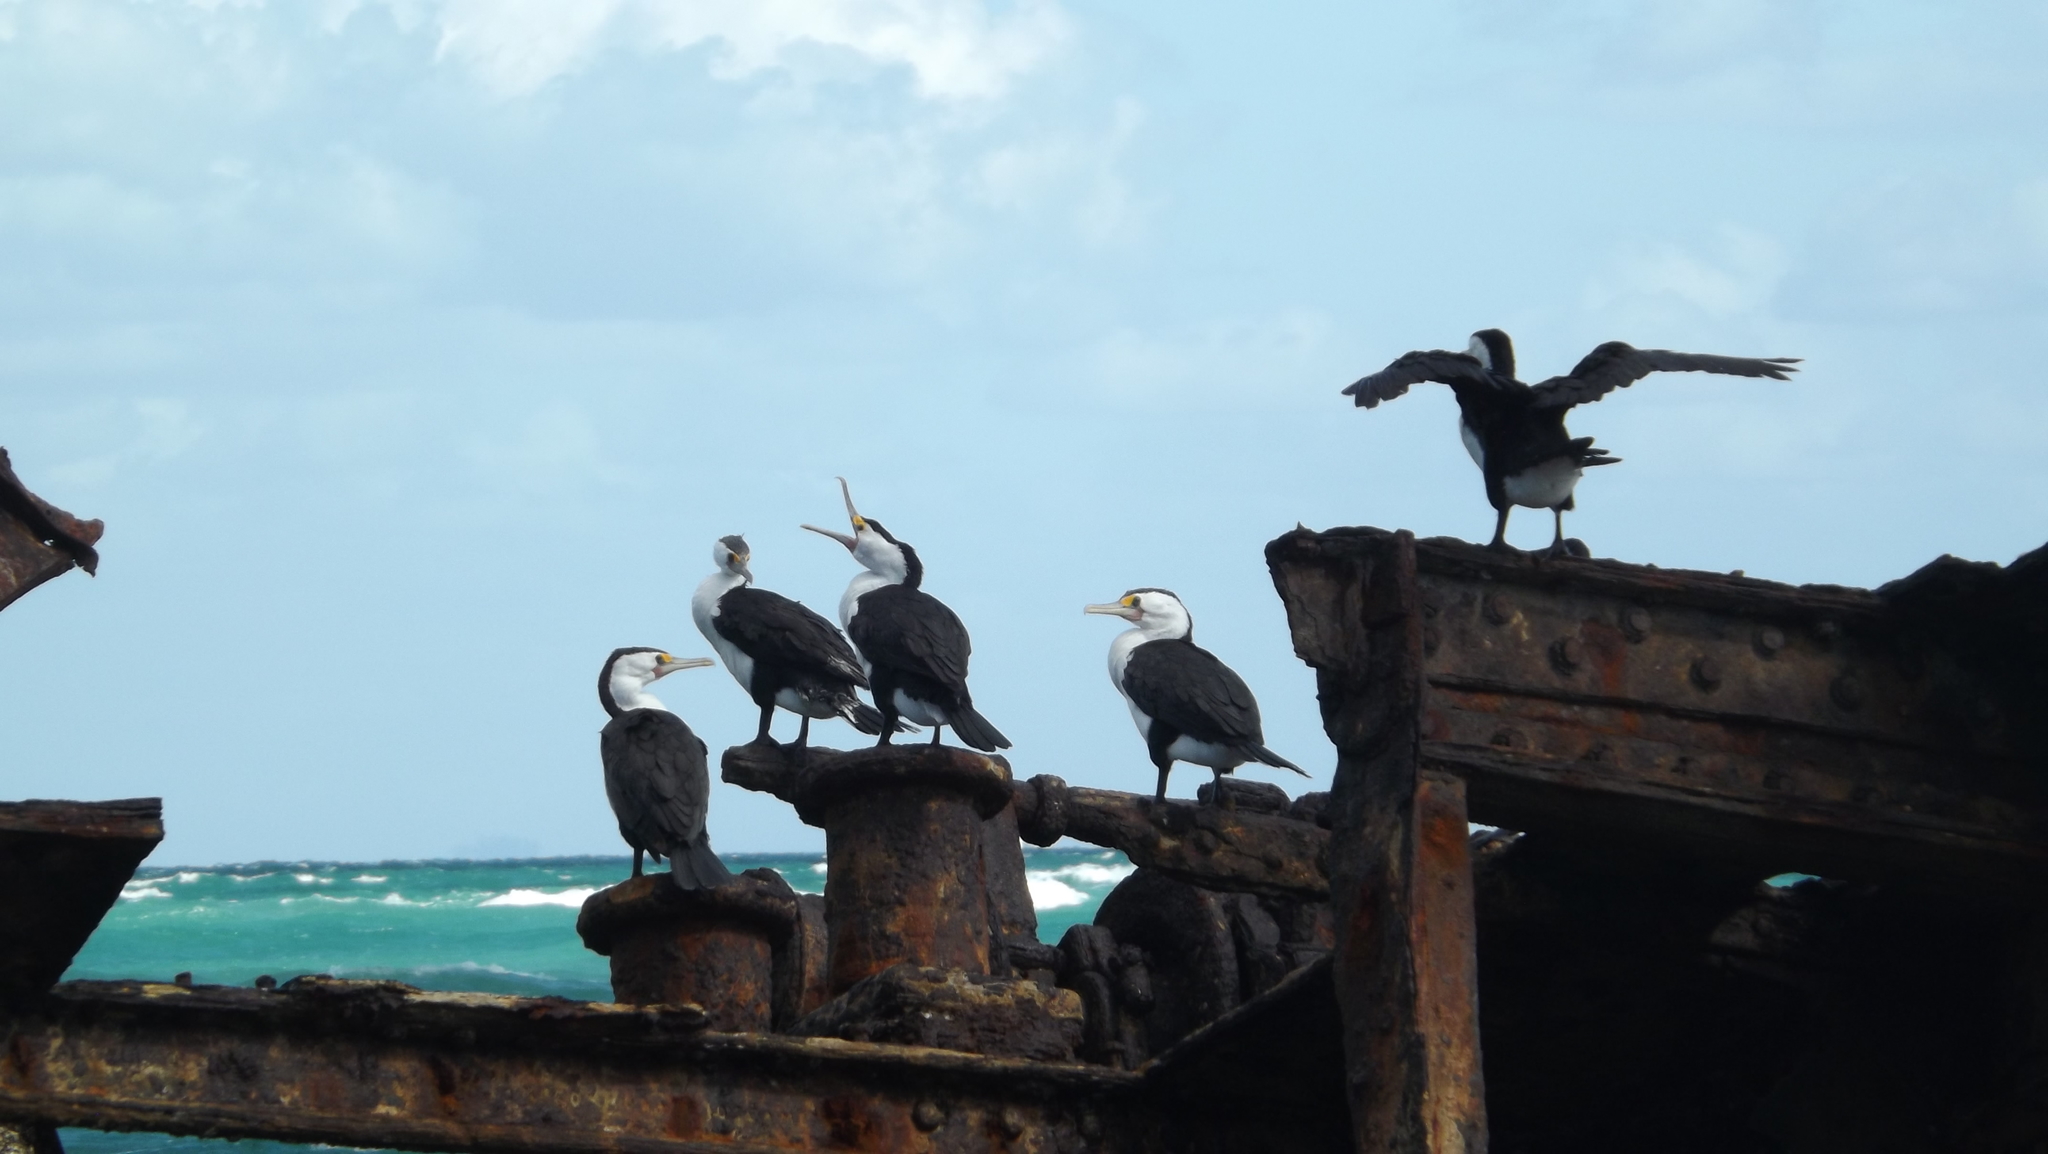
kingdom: Animalia
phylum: Chordata
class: Aves
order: Suliformes
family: Phalacrocoracidae
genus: Phalacrocorax
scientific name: Phalacrocorax varius
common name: Pied cormorant
